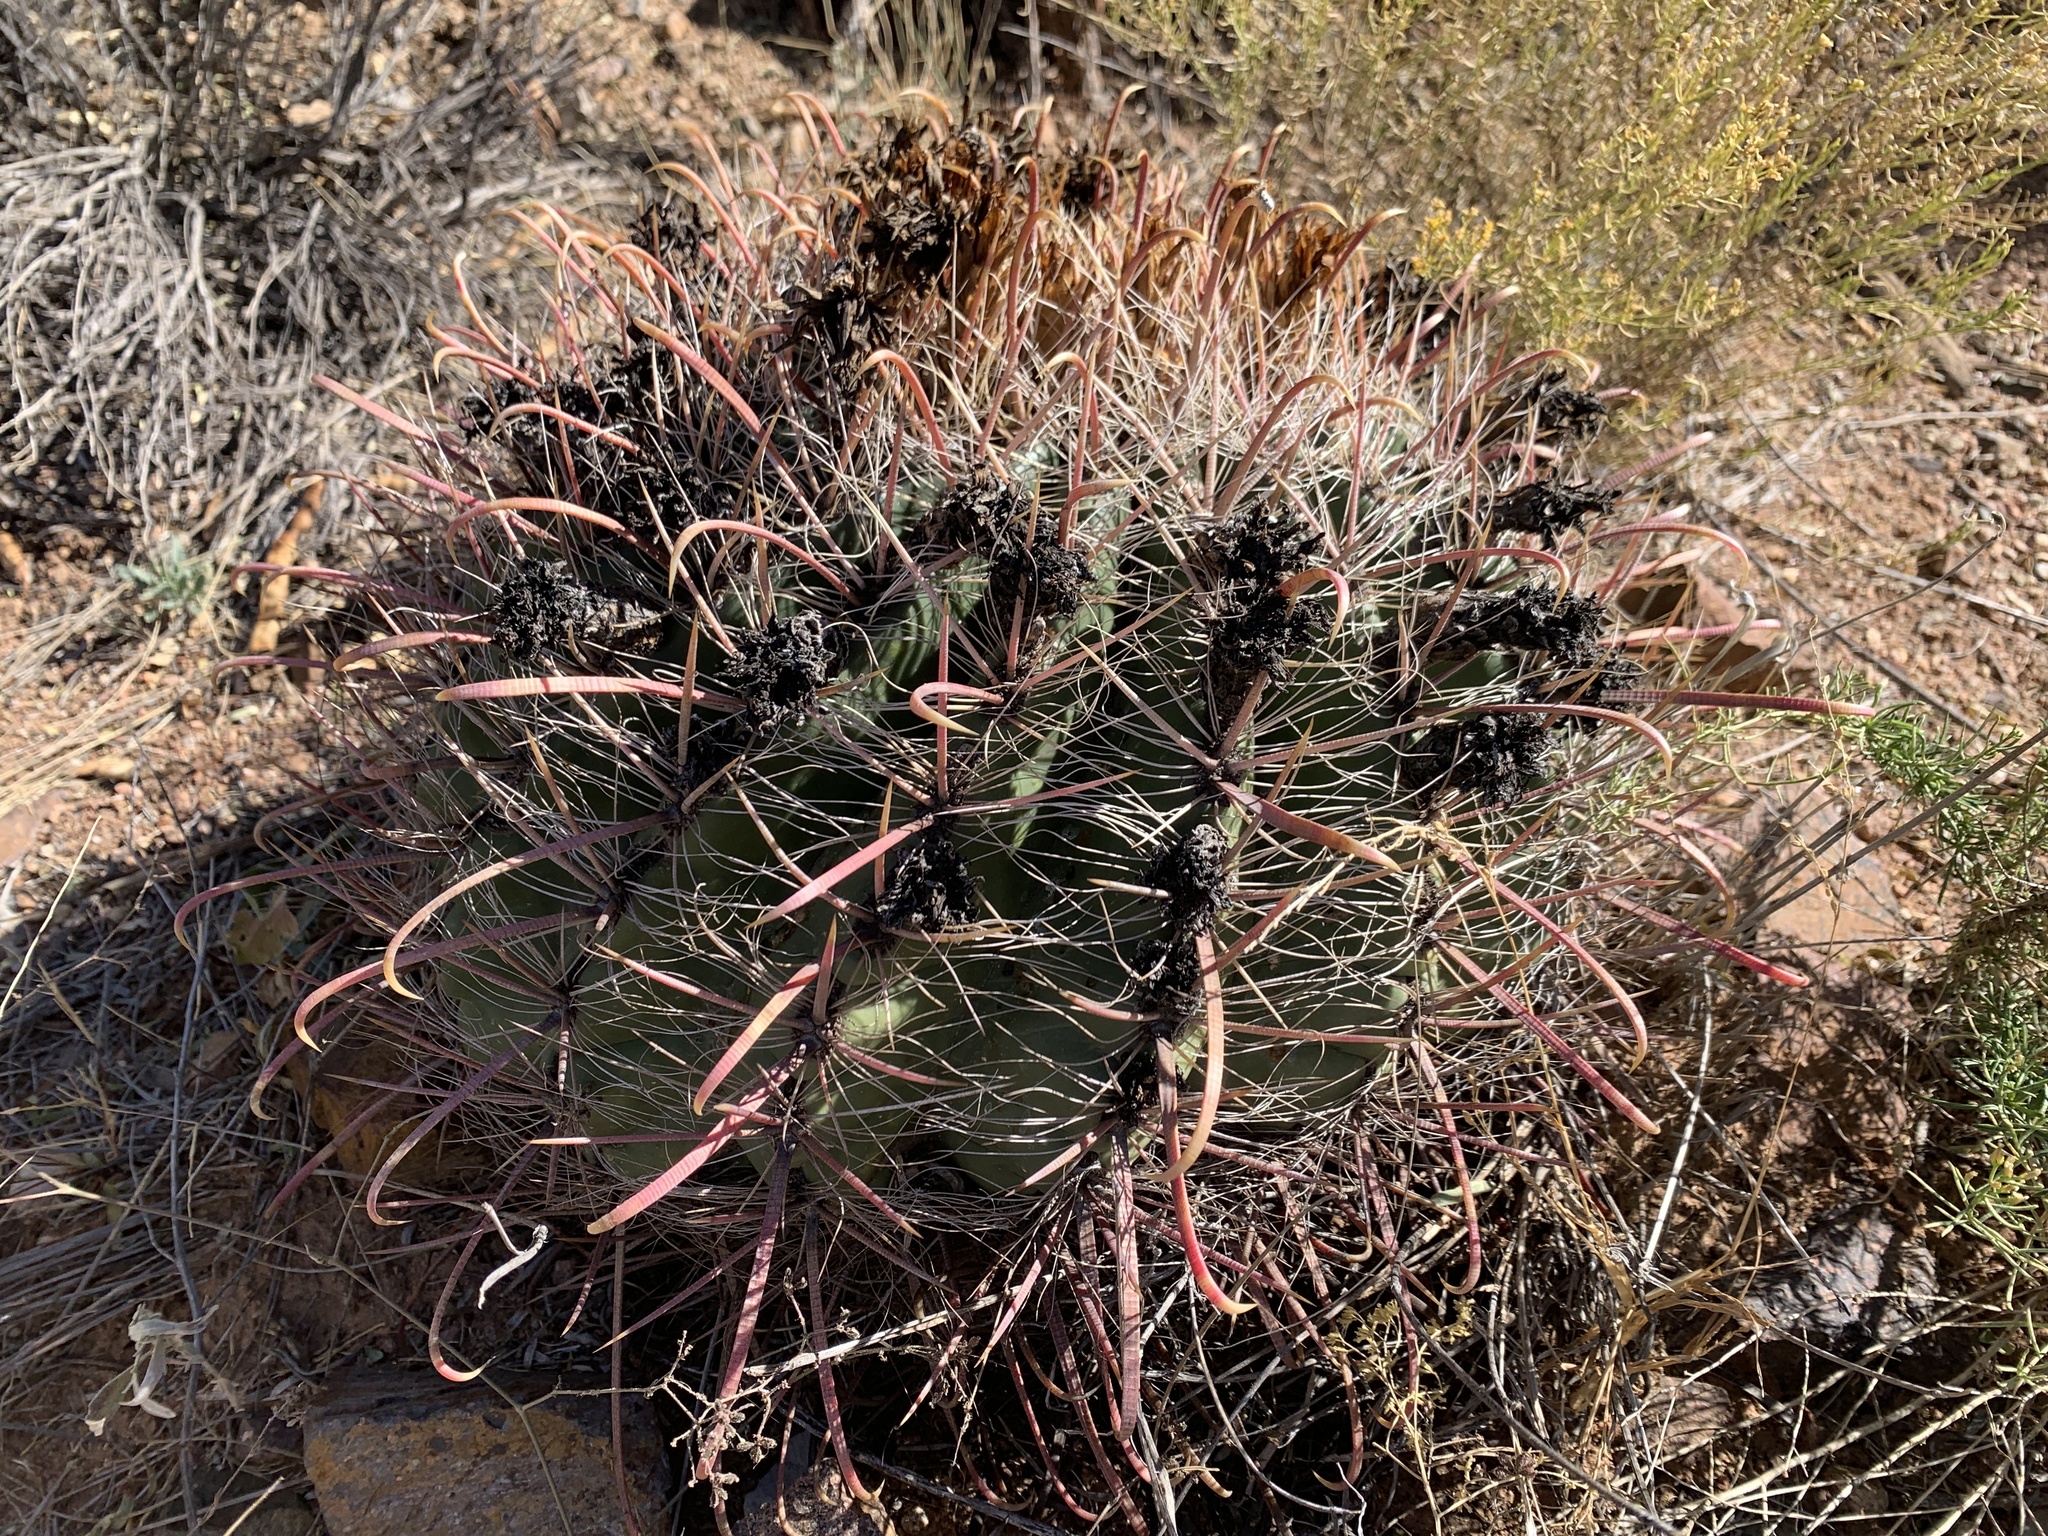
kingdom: Plantae
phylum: Tracheophyta
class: Magnoliopsida
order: Caryophyllales
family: Cactaceae
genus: Ferocactus
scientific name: Ferocactus wislizeni
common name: Candy barrel cactus
